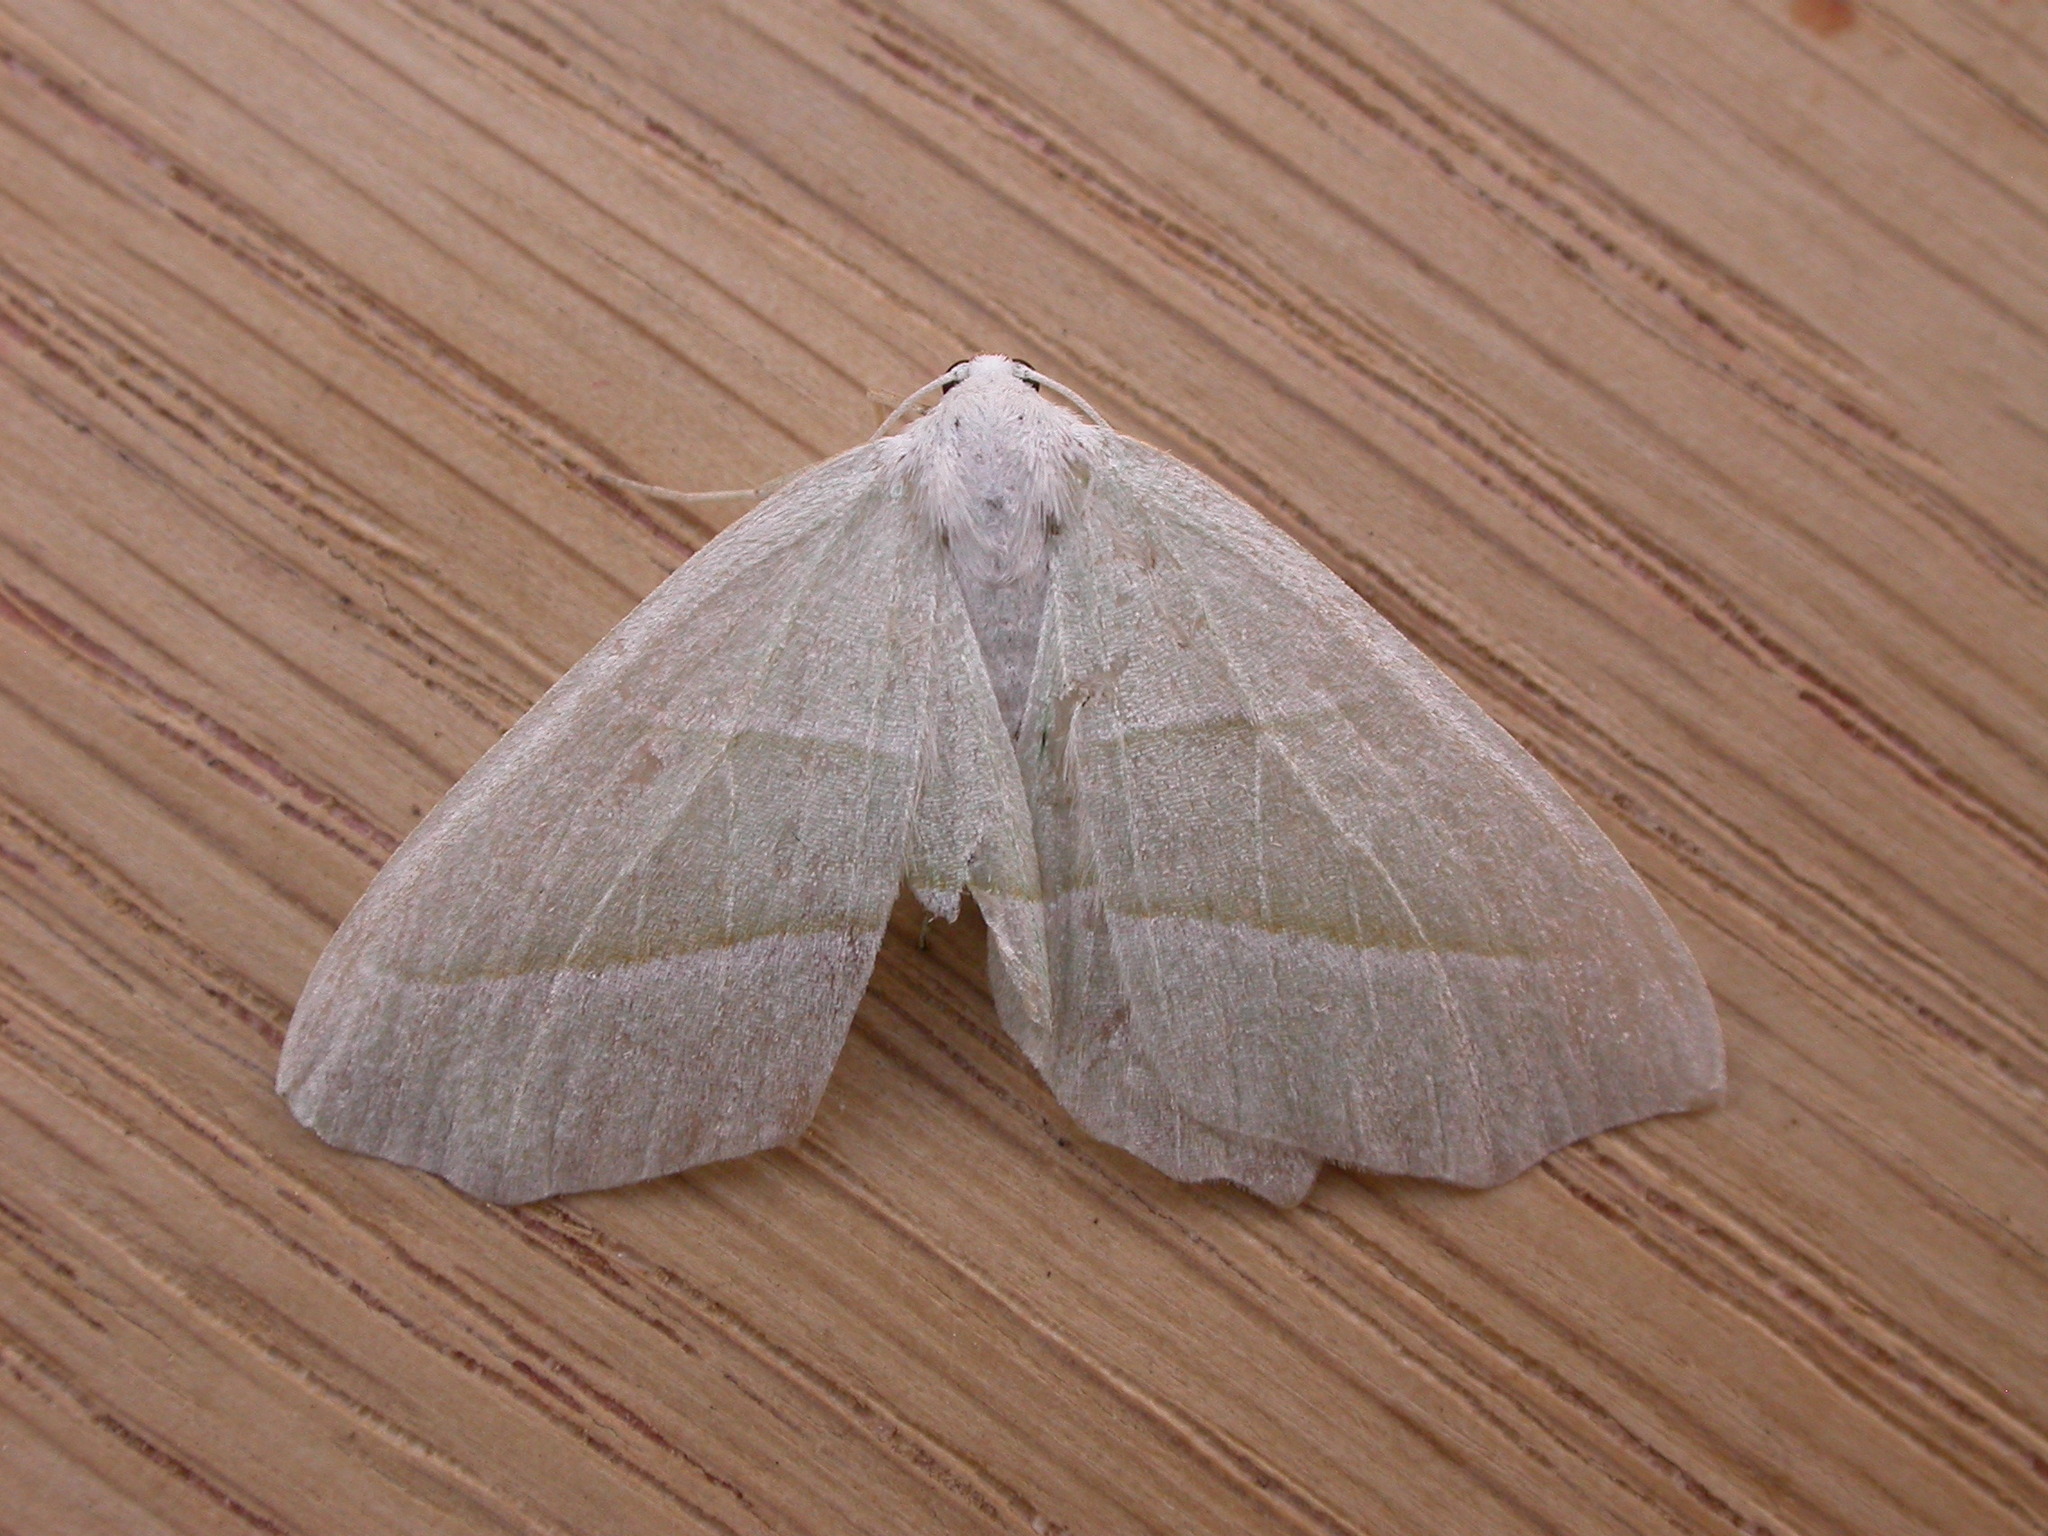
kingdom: Animalia
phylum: Arthropoda
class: Insecta
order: Lepidoptera
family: Geometridae
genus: Campaea
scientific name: Campaea margaritaria
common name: Light emerald
